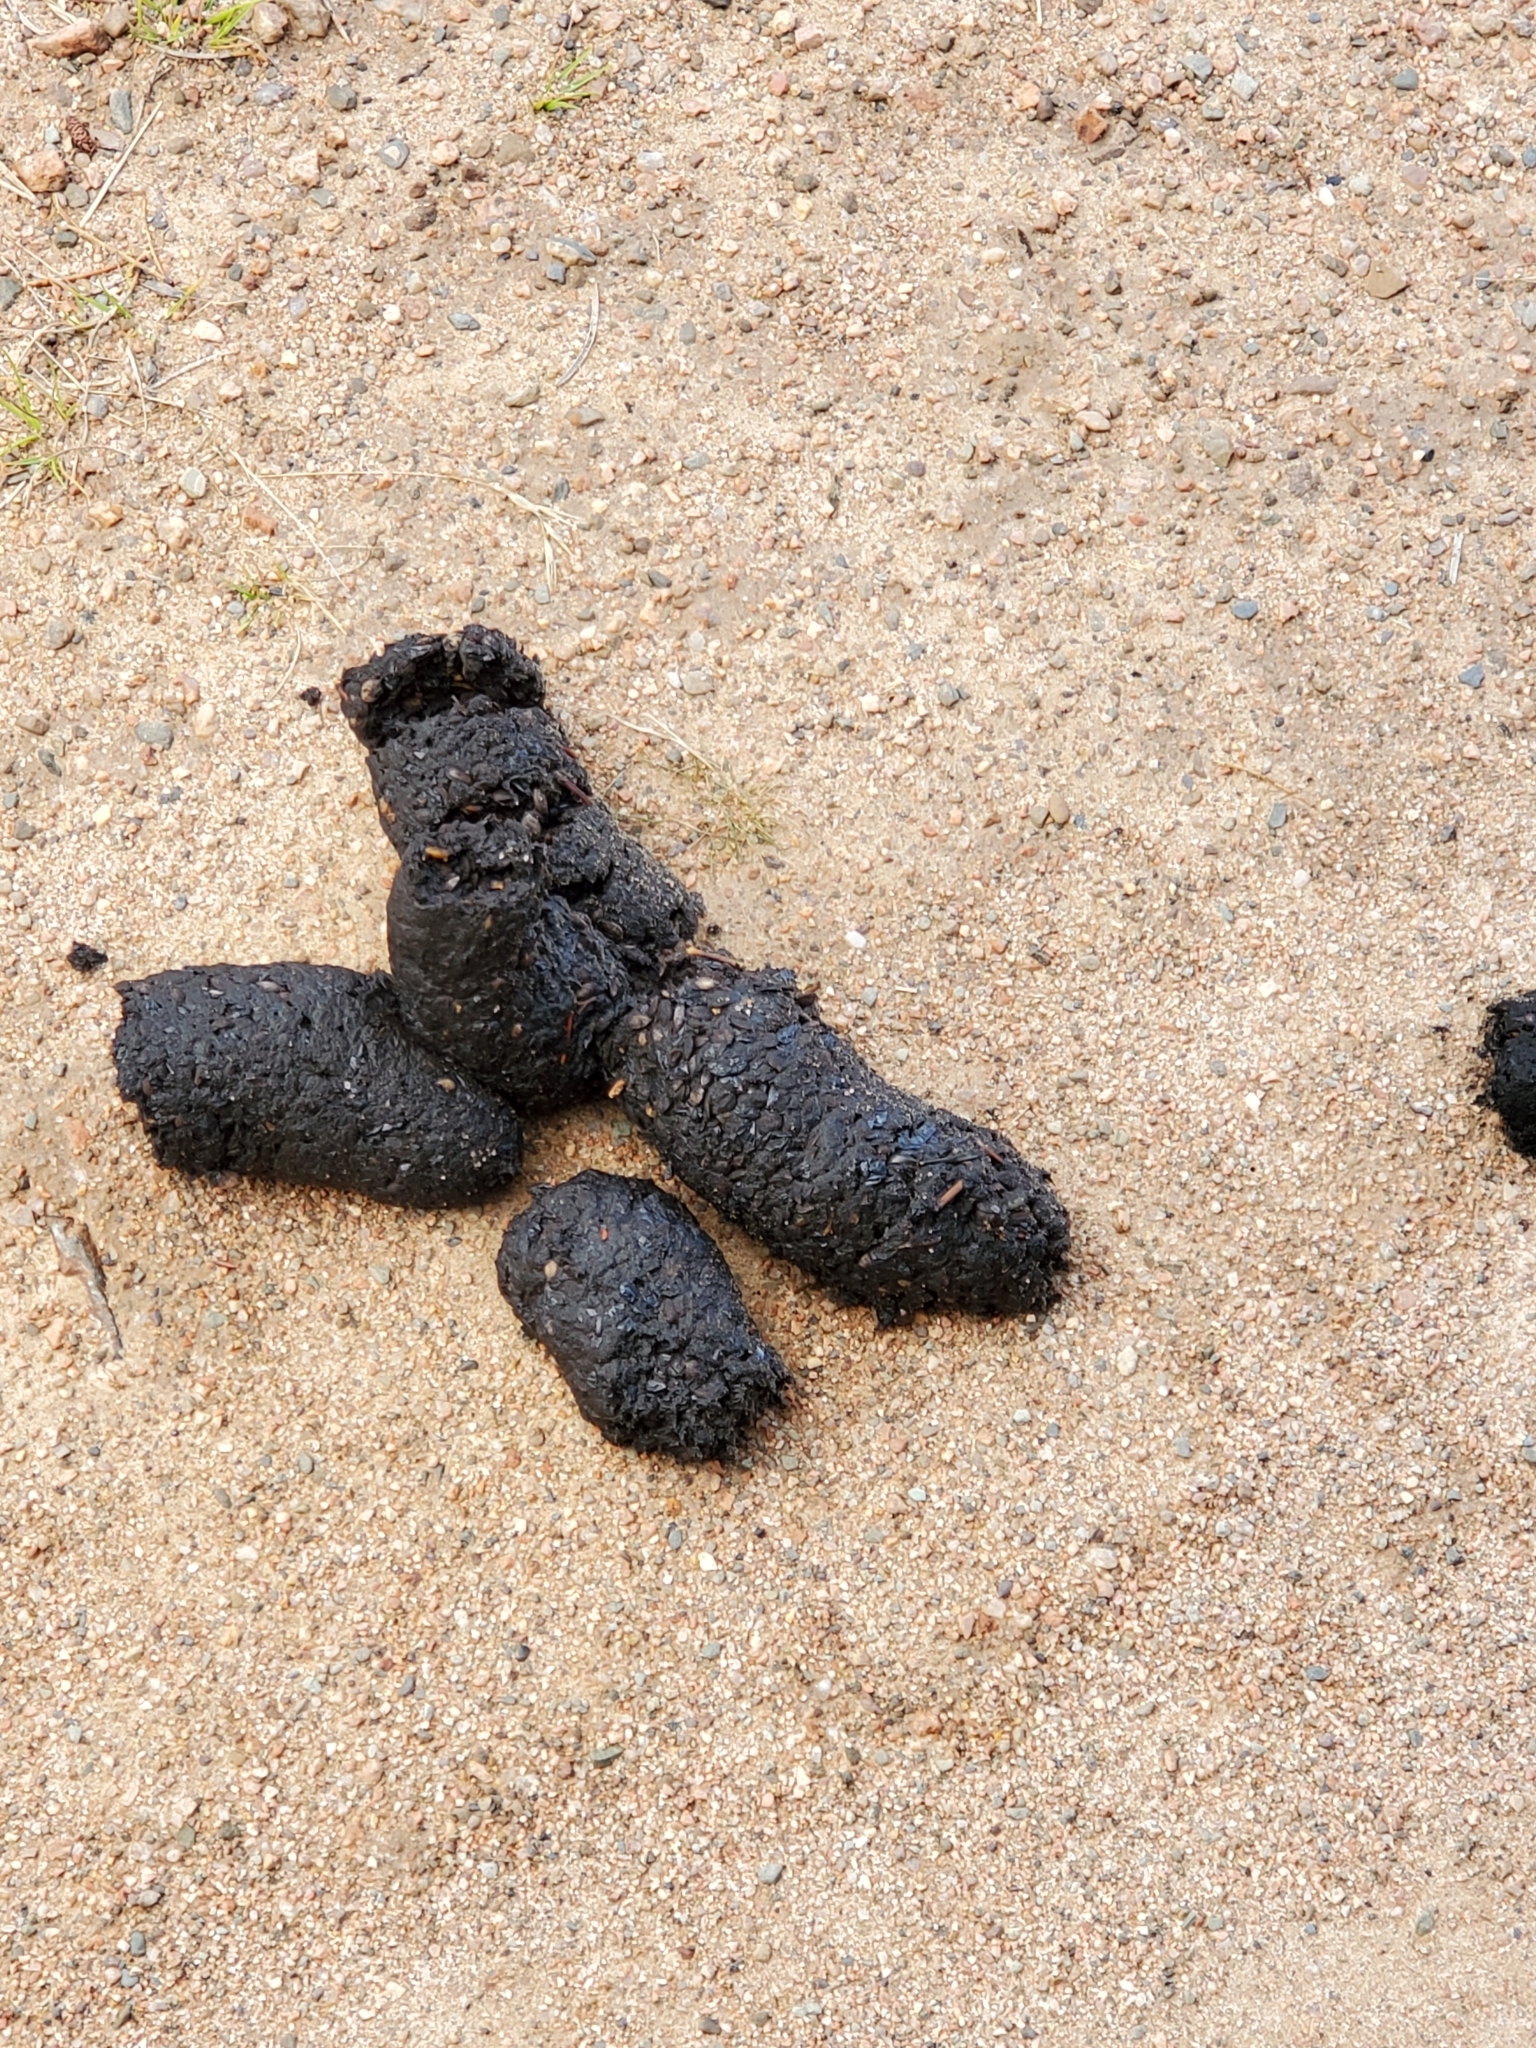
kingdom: Animalia
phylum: Chordata
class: Mammalia
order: Carnivora
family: Ursidae
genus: Ursus
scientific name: Ursus americanus
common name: American black bear
